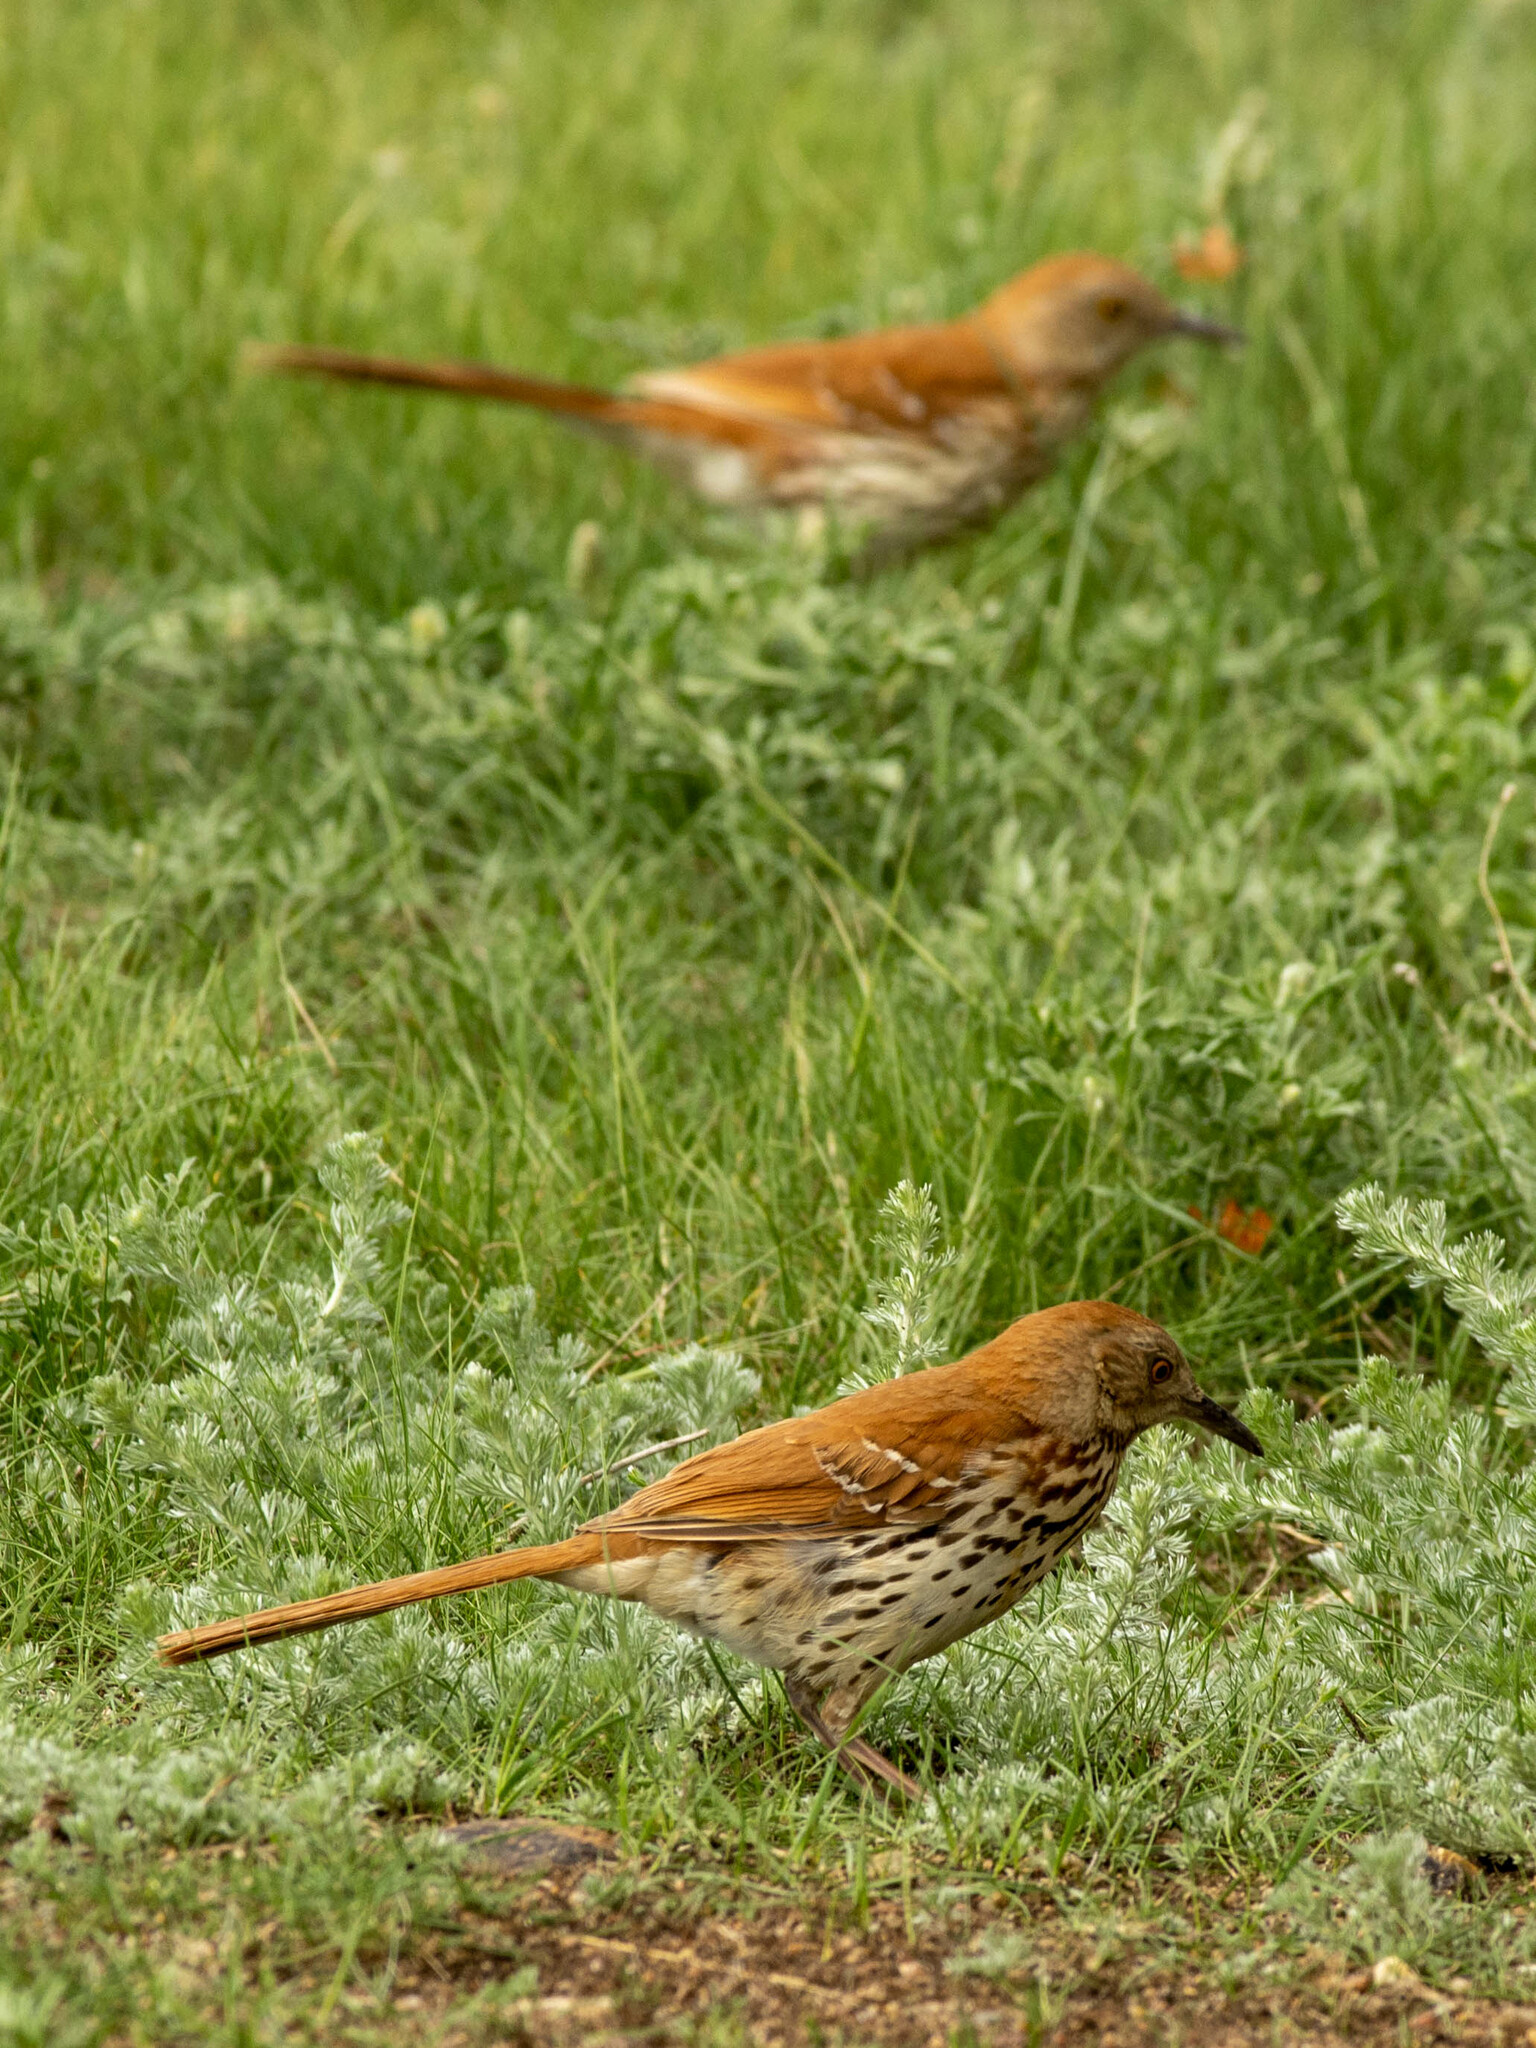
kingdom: Animalia
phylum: Chordata
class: Aves
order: Passeriformes
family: Mimidae
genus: Toxostoma
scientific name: Toxostoma rufum
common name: Brown thrasher
